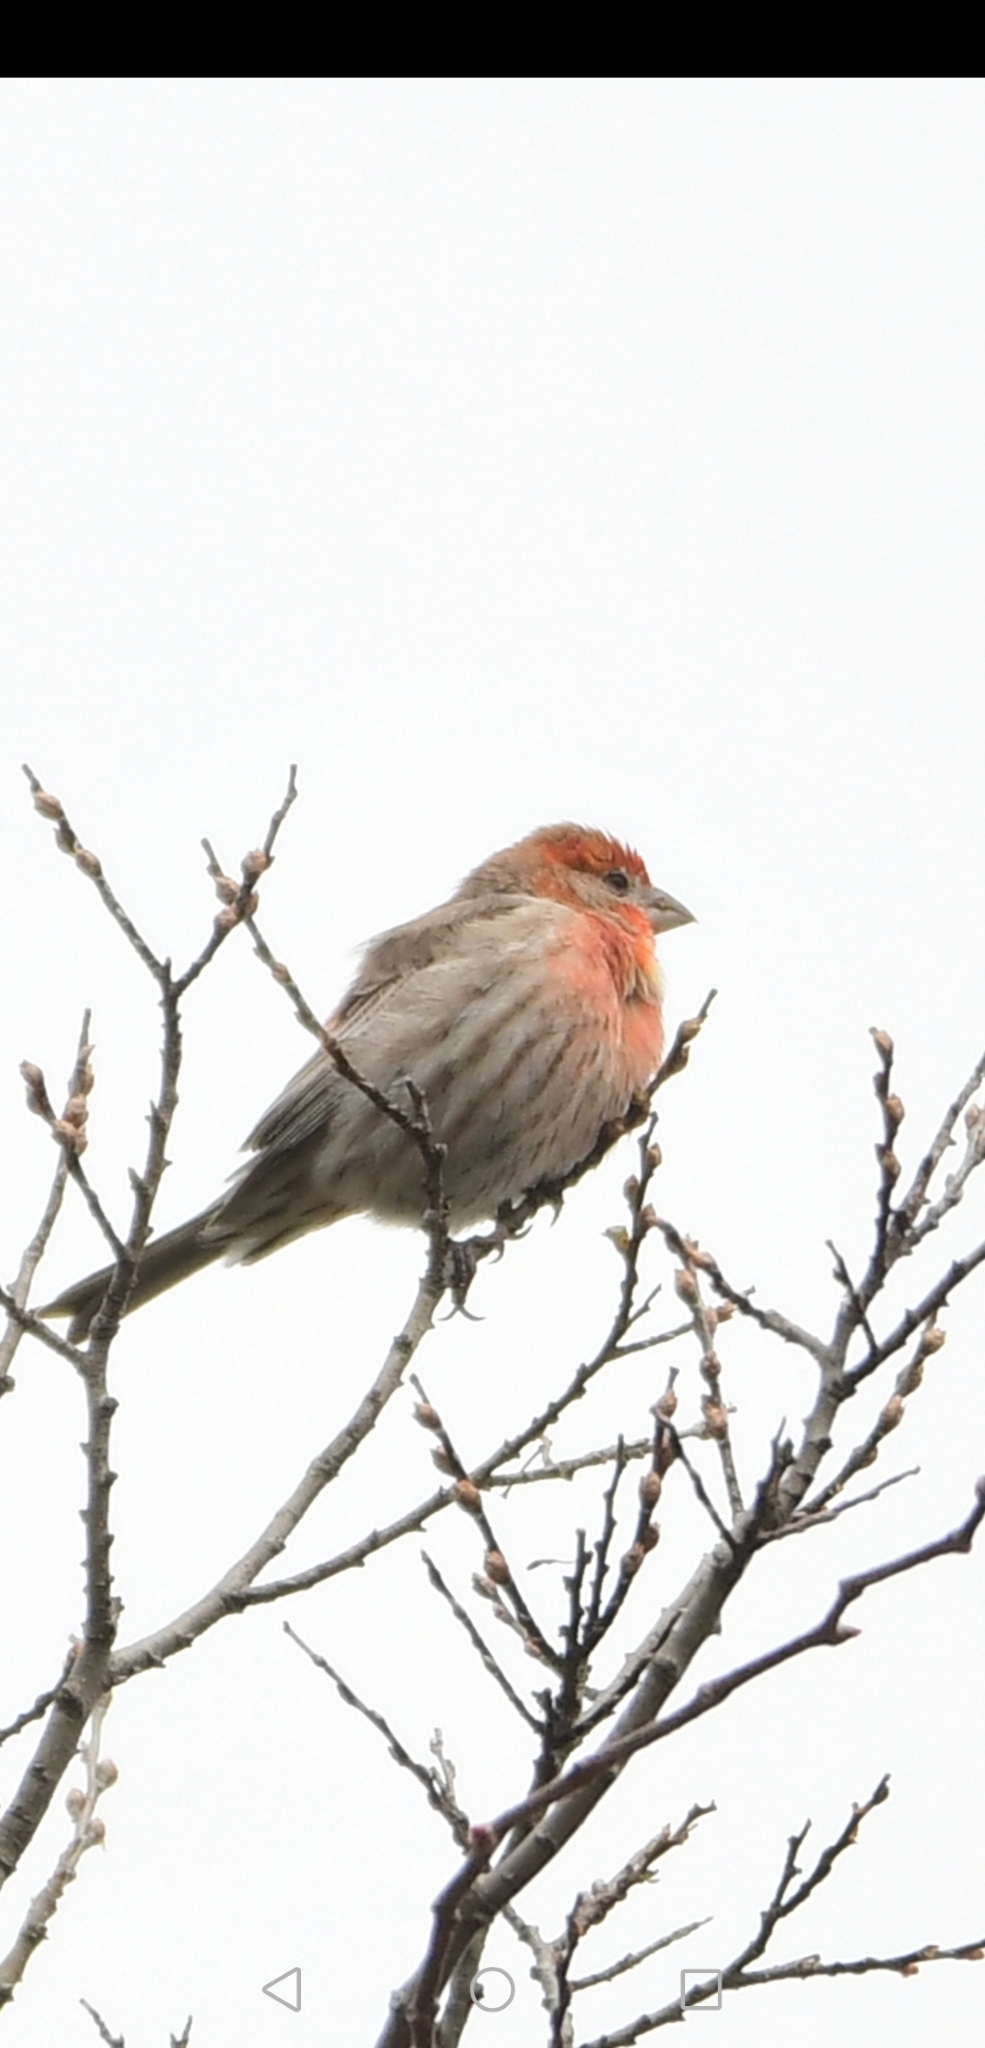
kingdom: Animalia
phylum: Chordata
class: Aves
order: Passeriformes
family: Fringillidae
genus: Haemorhous
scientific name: Haemorhous mexicanus
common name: House finch
